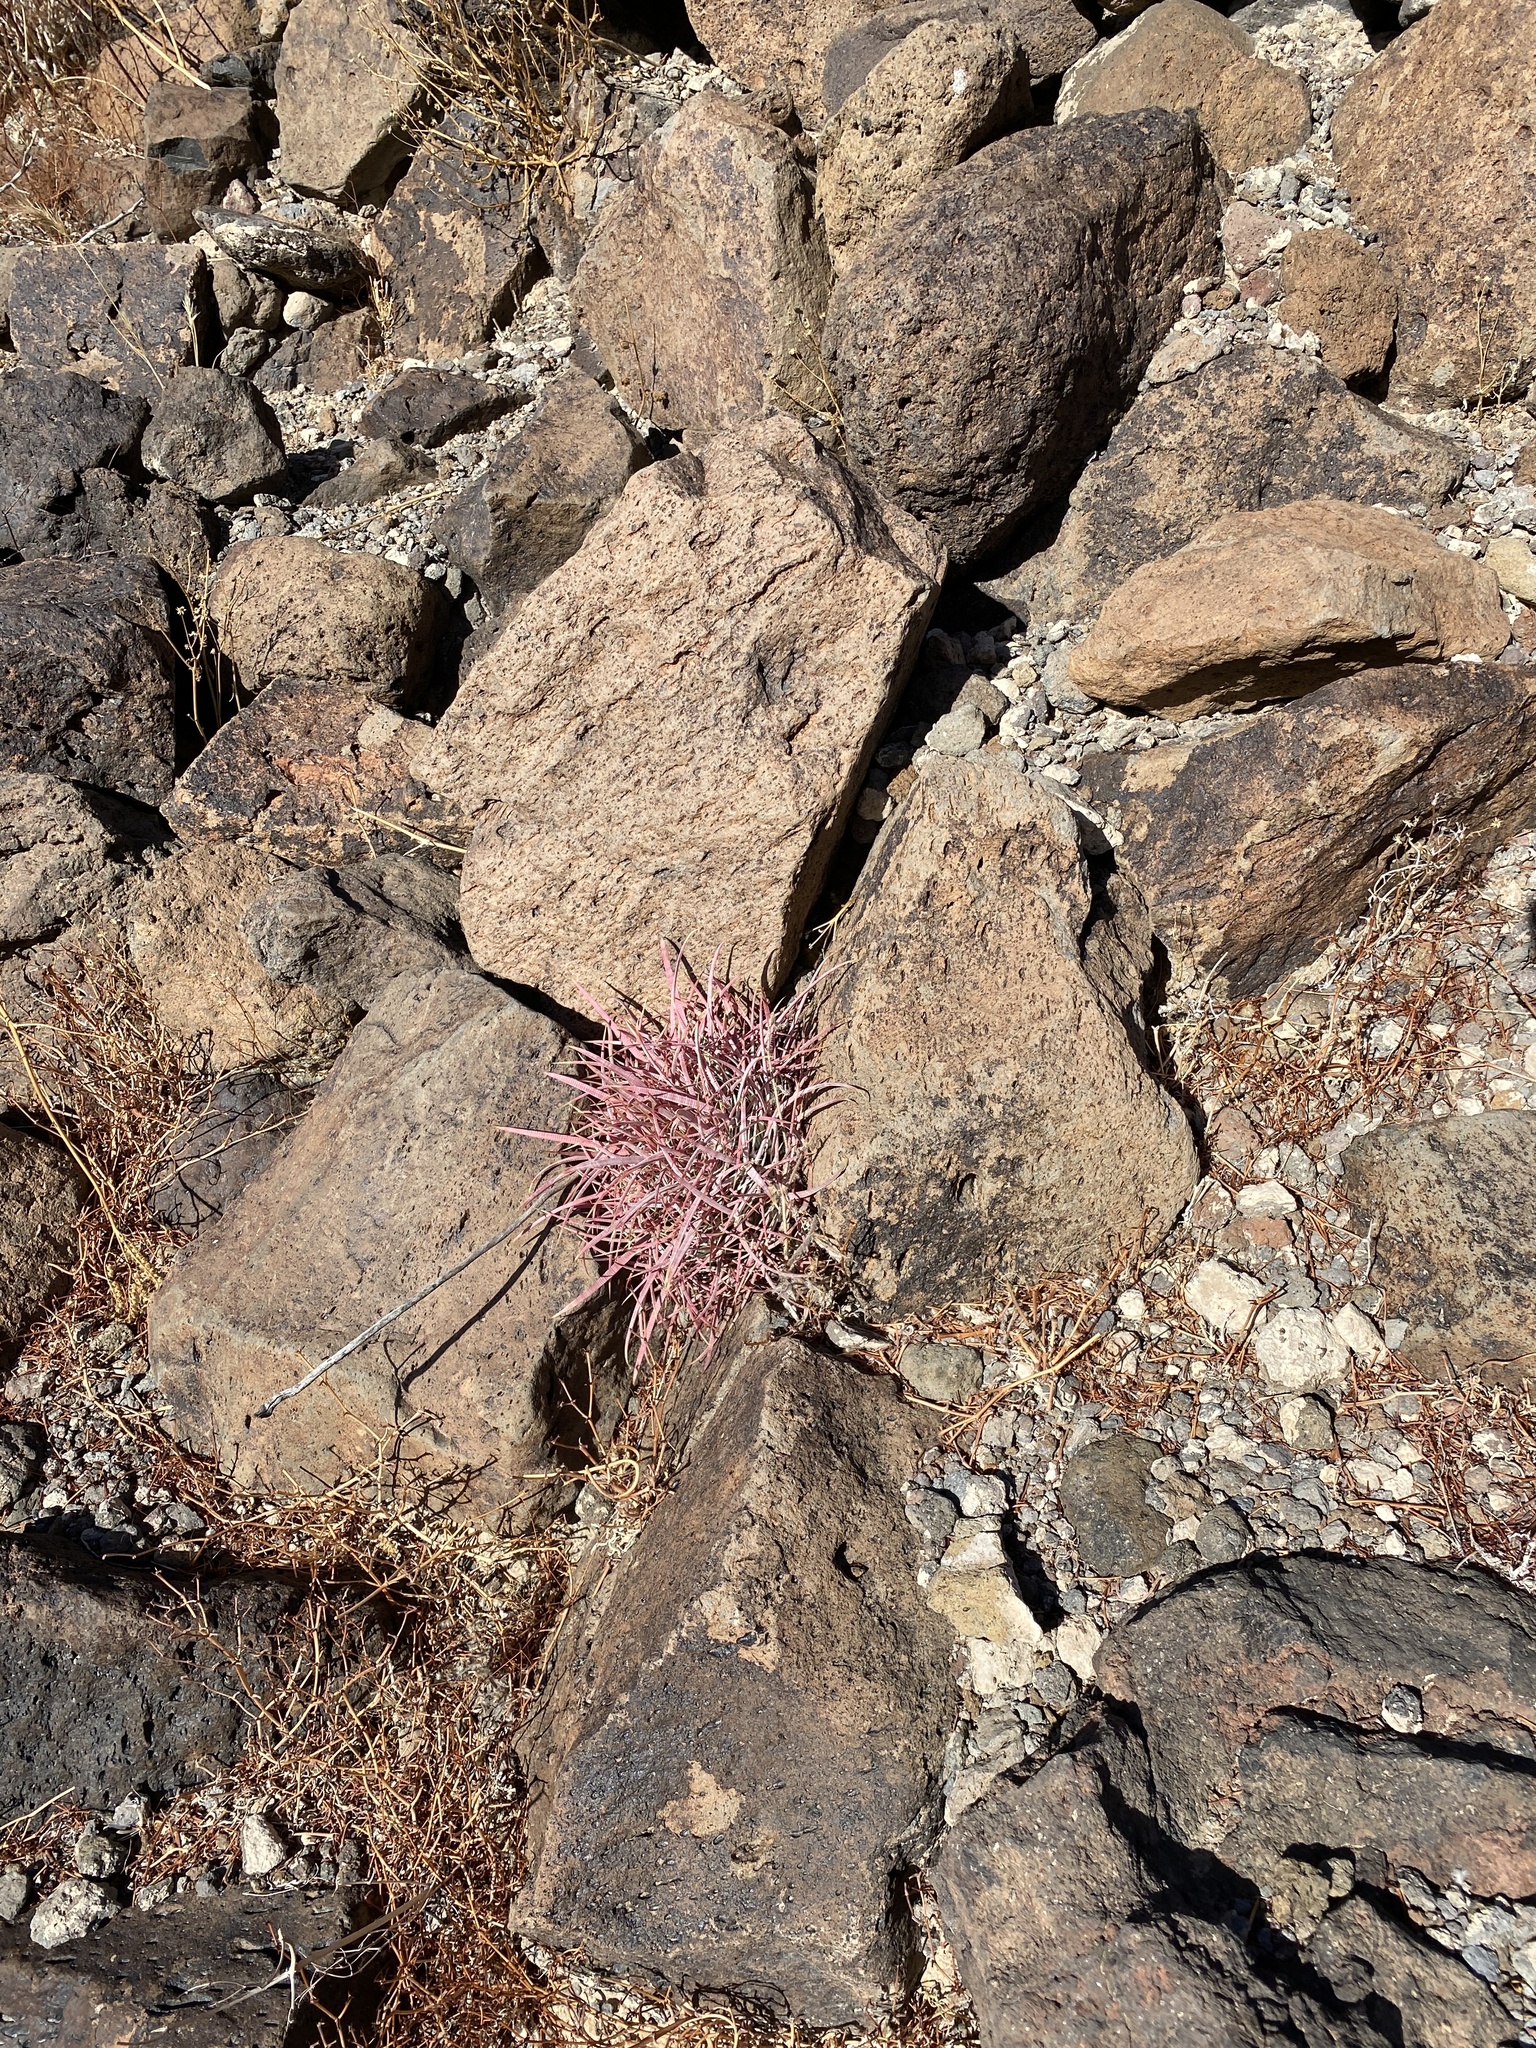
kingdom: Plantae
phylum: Tracheophyta
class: Magnoliopsida
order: Caryophyllales
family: Cactaceae
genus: Ferocactus
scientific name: Ferocactus cylindraceus
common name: California barrel cactus
